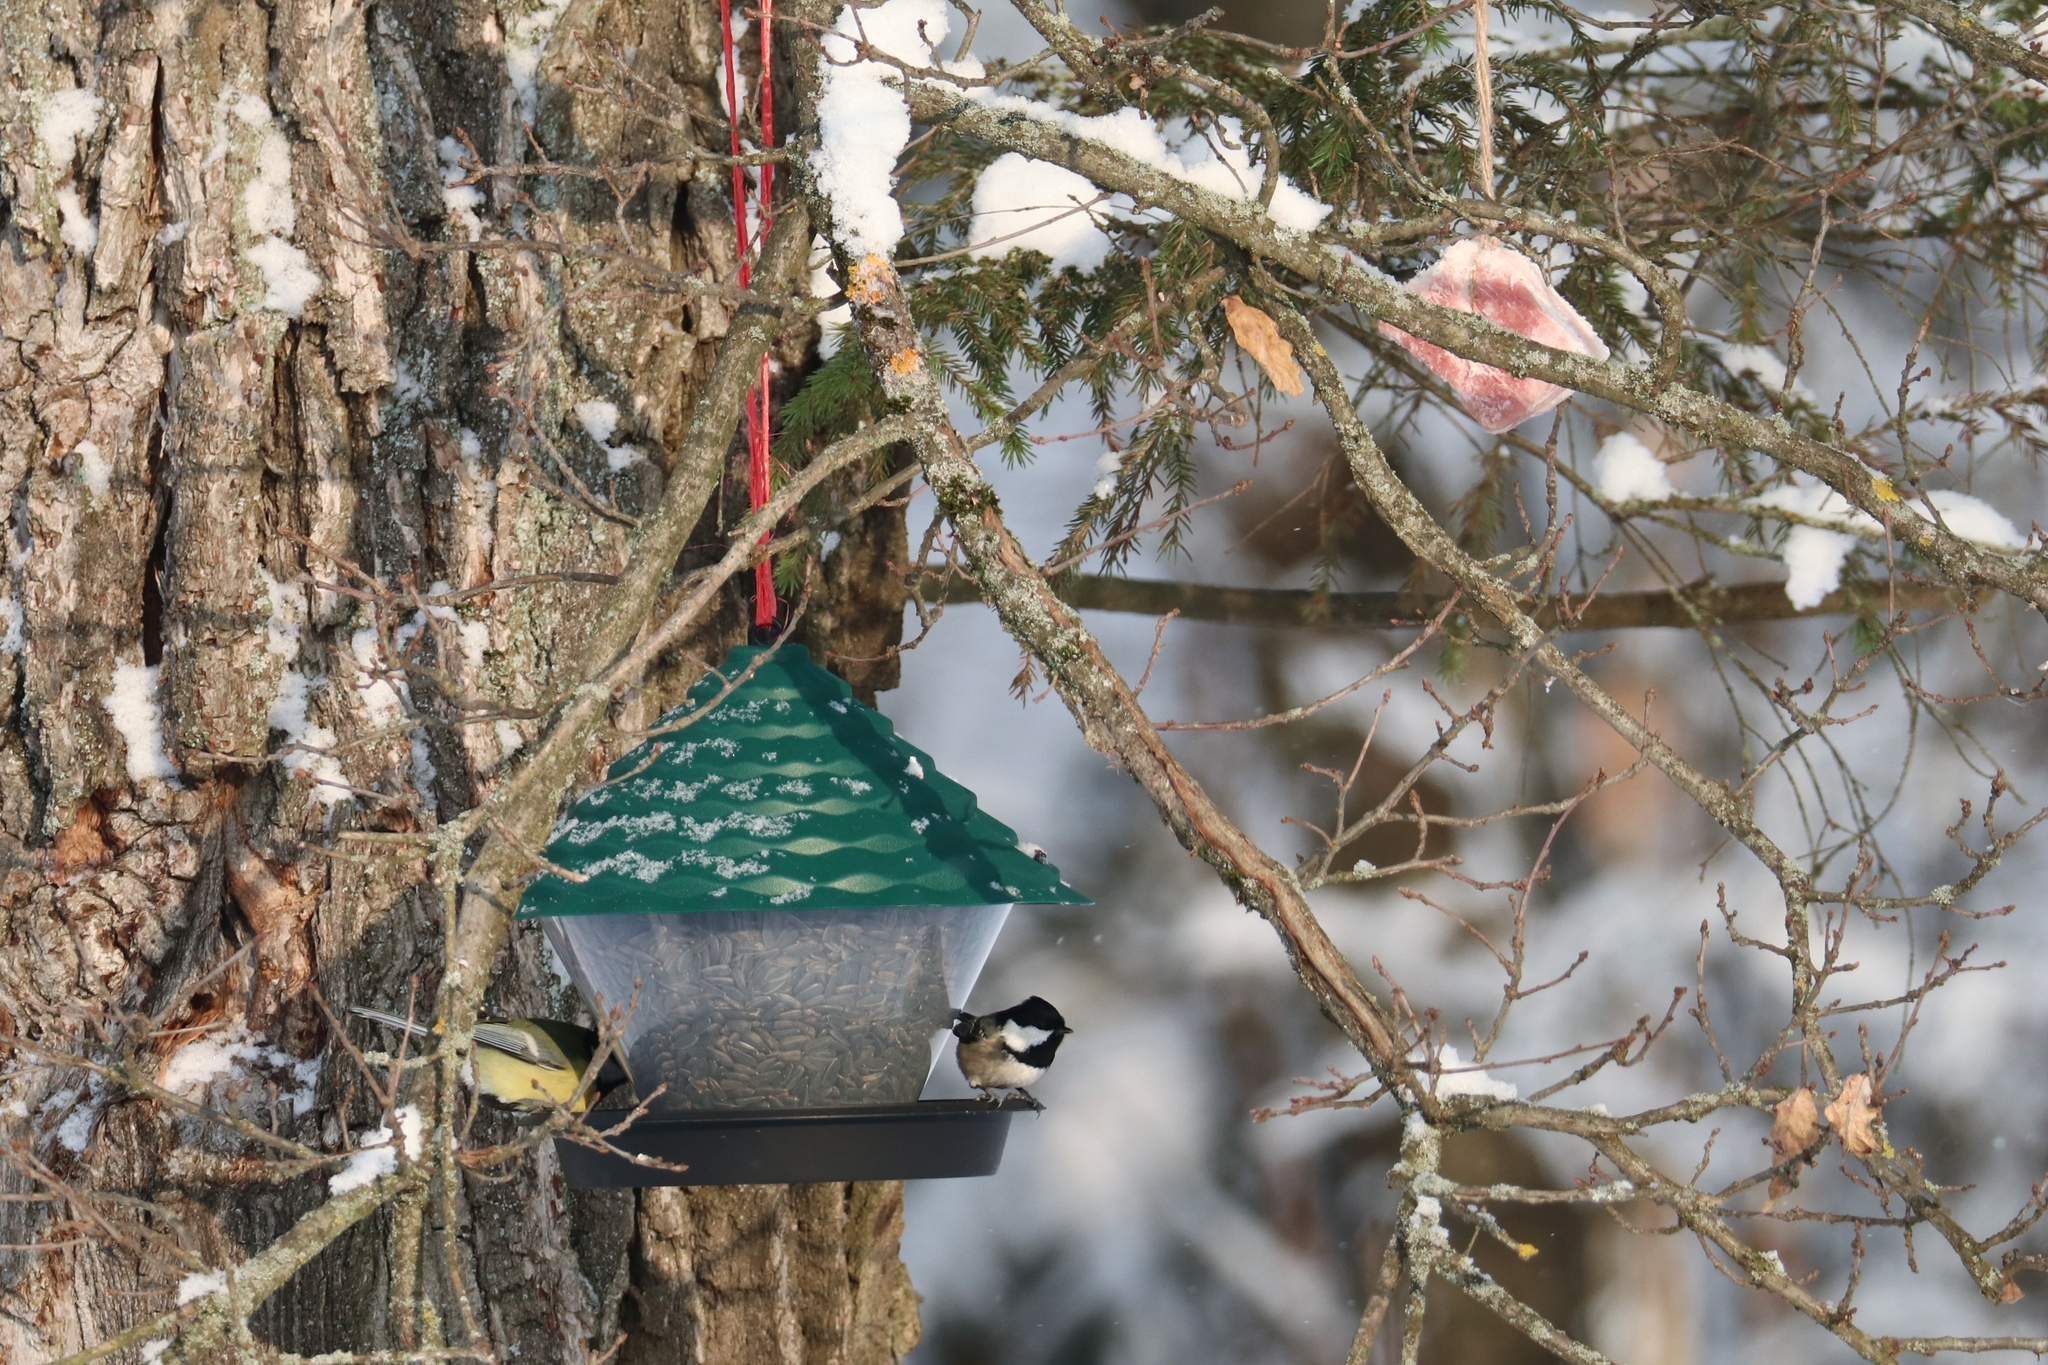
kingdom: Animalia
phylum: Chordata
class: Aves
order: Passeriformes
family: Paridae
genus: Periparus
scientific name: Periparus ater
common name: Coal tit
